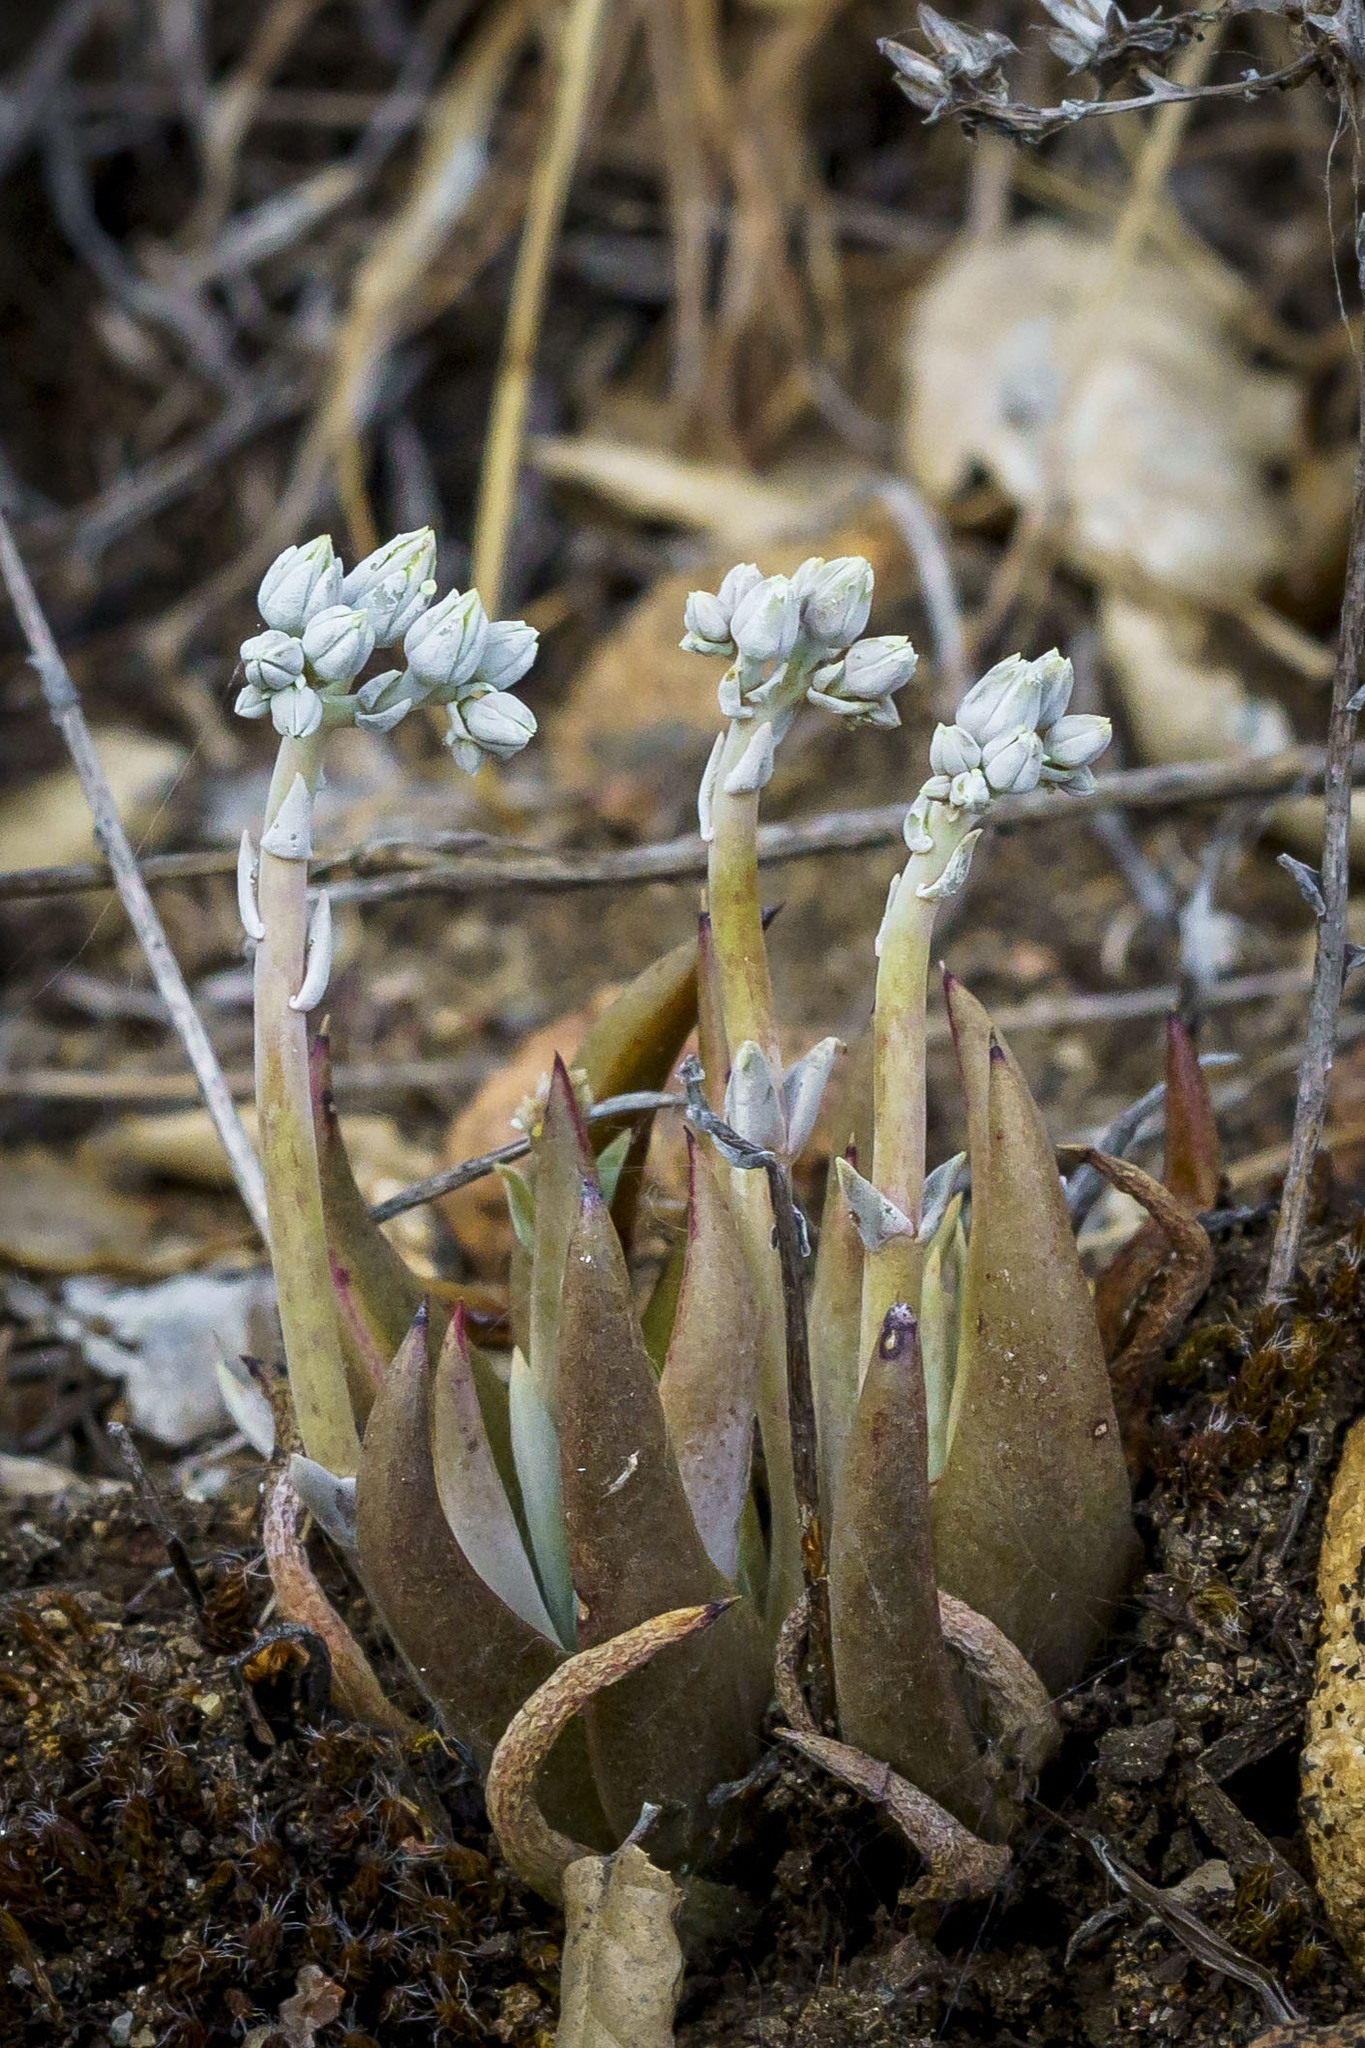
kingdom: Plantae
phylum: Tracheophyta
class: Magnoliopsida
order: Saxifragales
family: Crassulaceae
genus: Dudleya
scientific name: Dudleya abramsii
